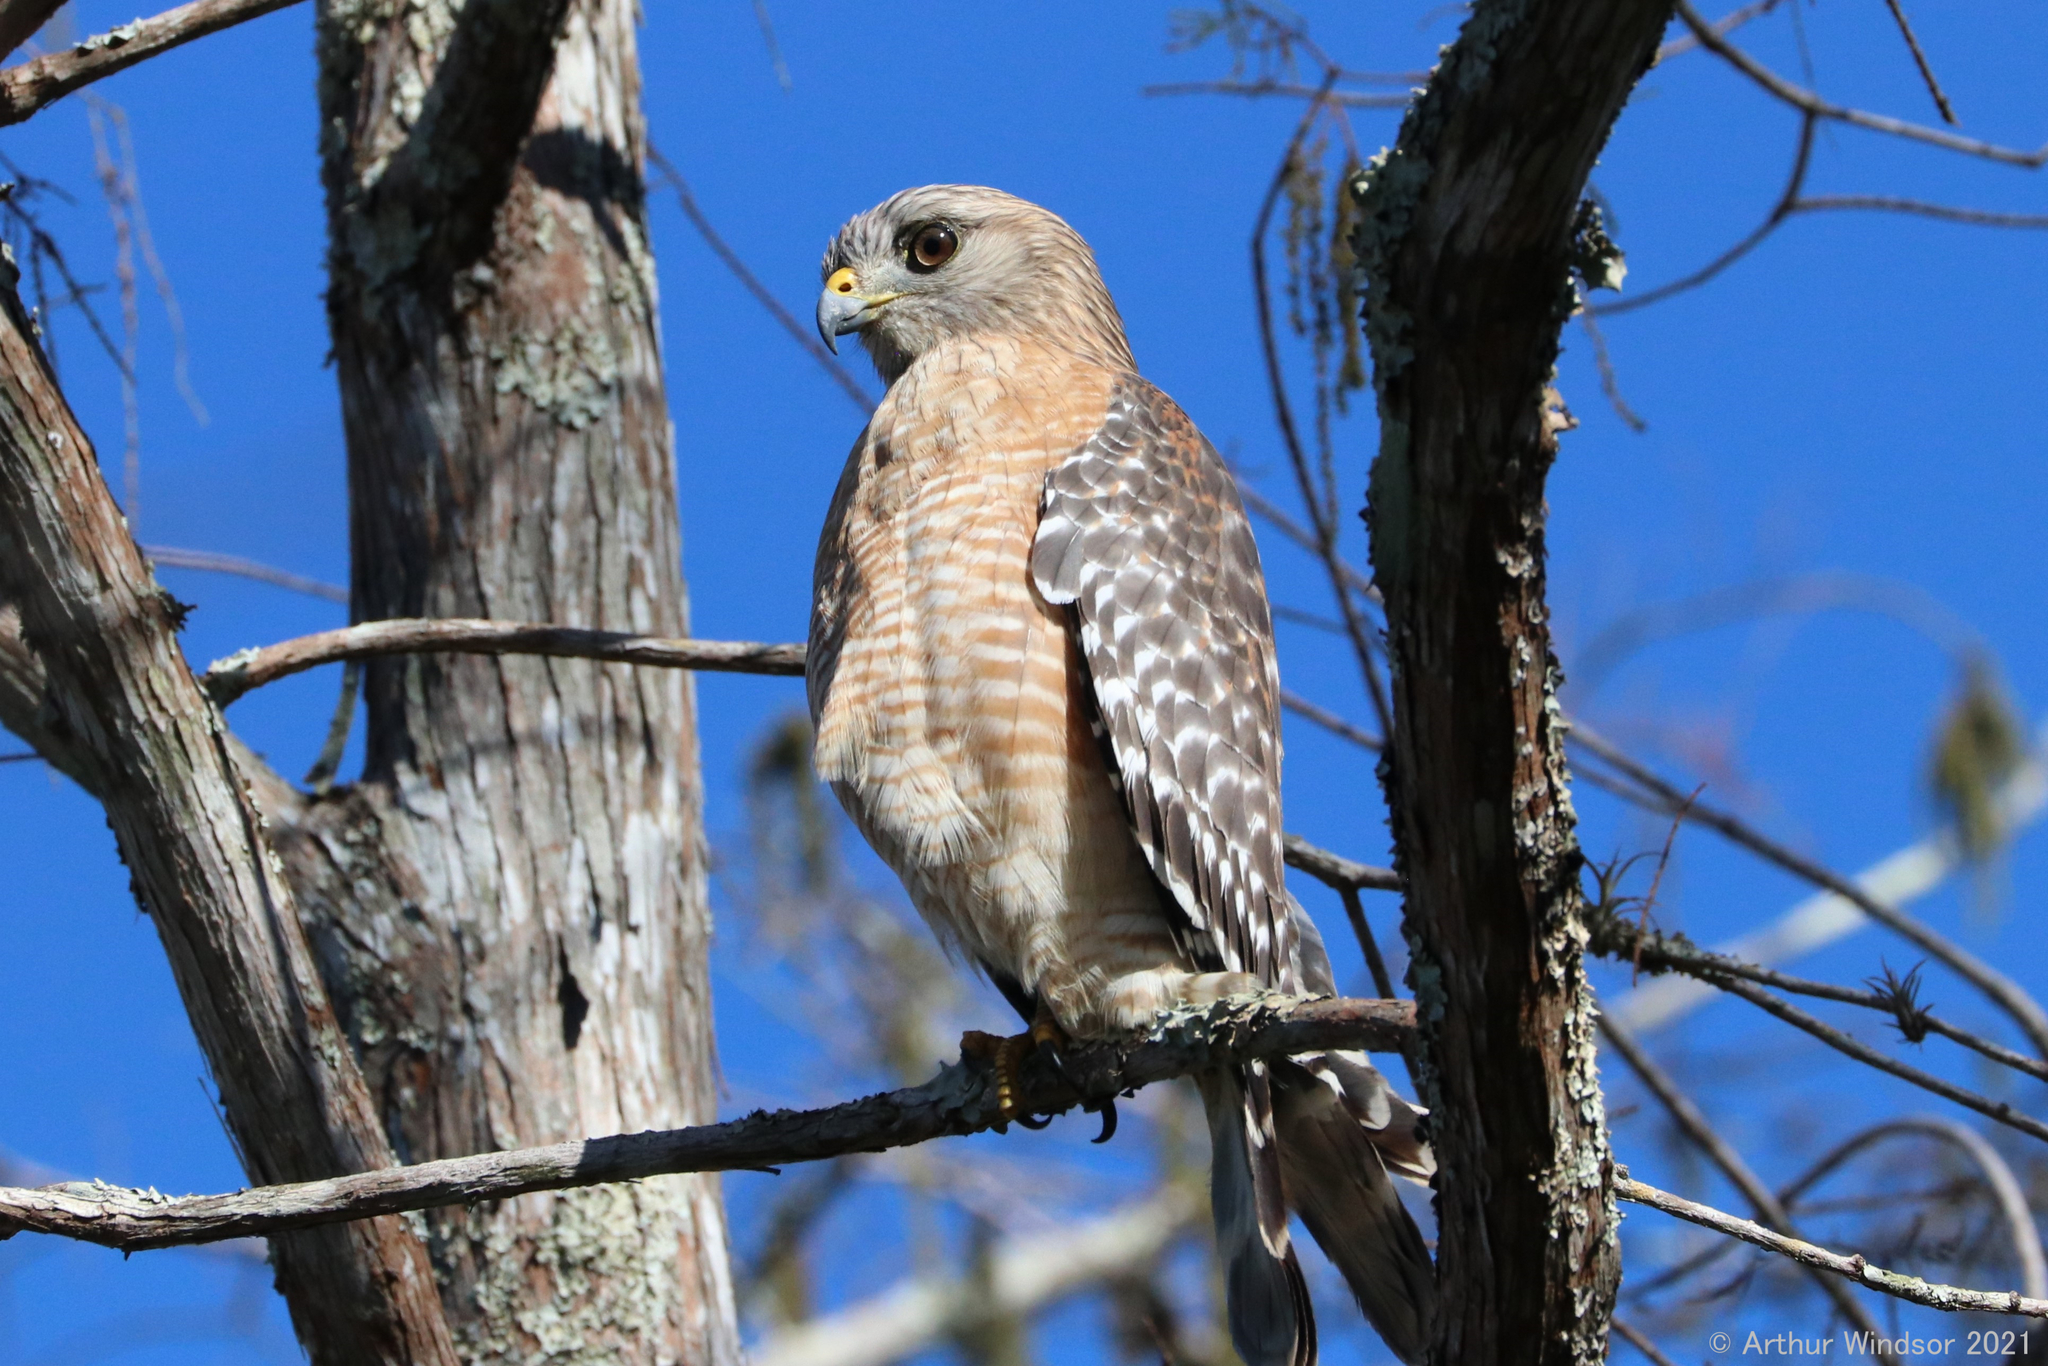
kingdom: Animalia
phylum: Chordata
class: Aves
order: Accipitriformes
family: Accipitridae
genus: Buteo
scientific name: Buteo lineatus
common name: Red-shouldered hawk
